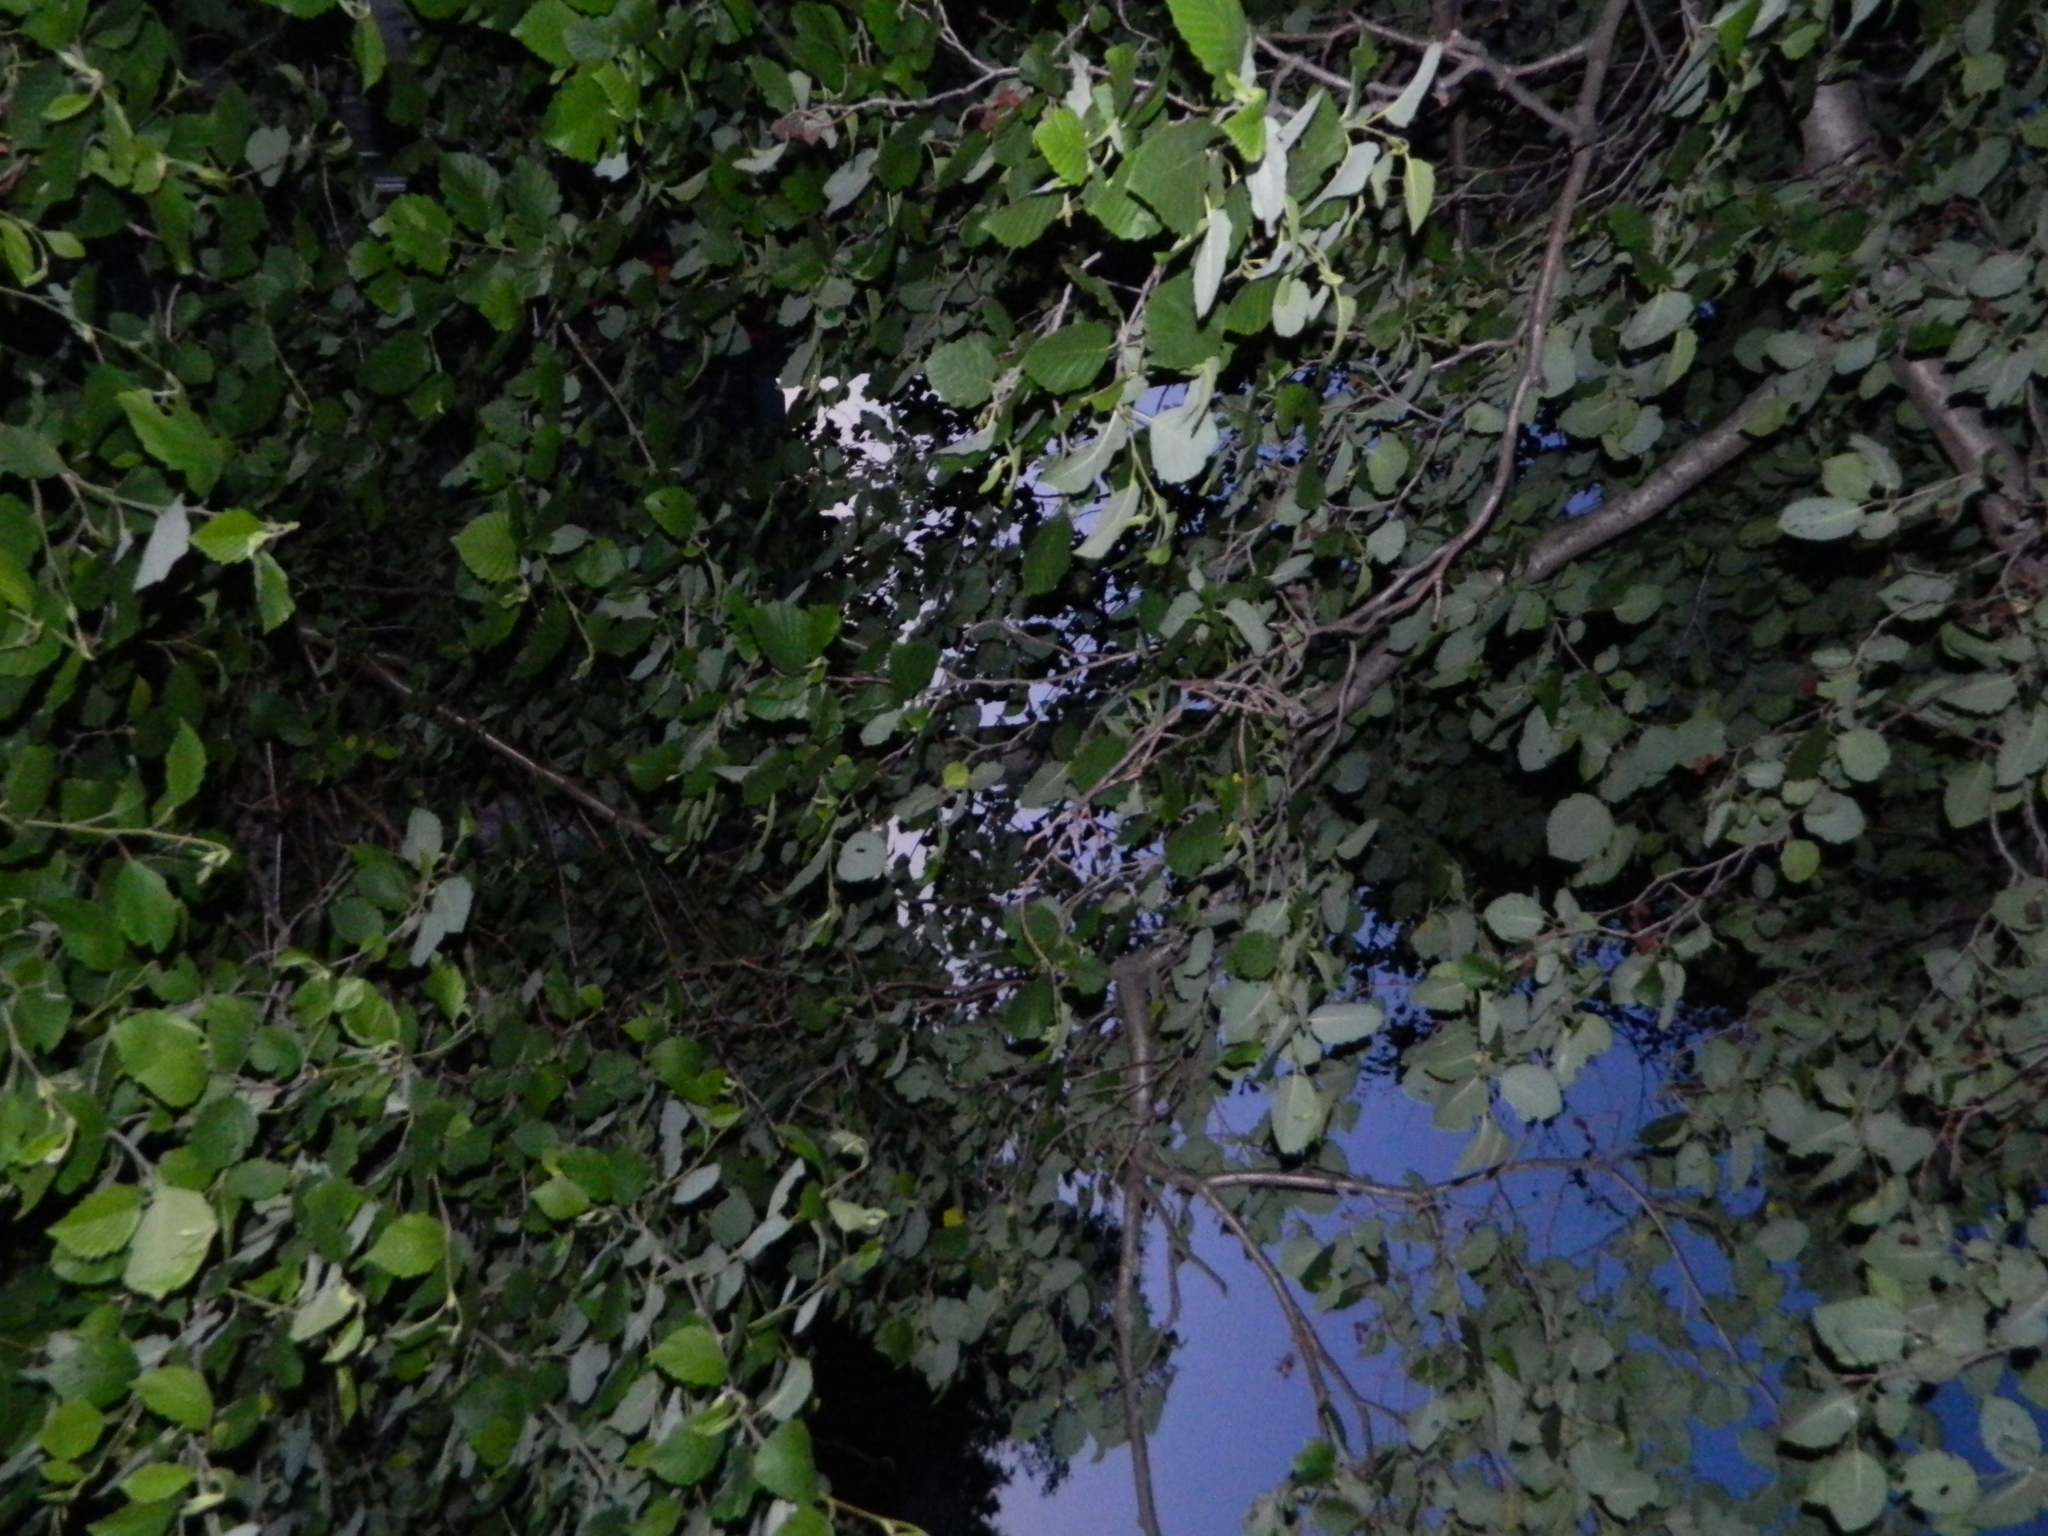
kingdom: Plantae
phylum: Tracheophyta
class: Magnoliopsida
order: Fagales
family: Betulaceae
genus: Alnus
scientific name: Alnus incana
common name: Grey alder
